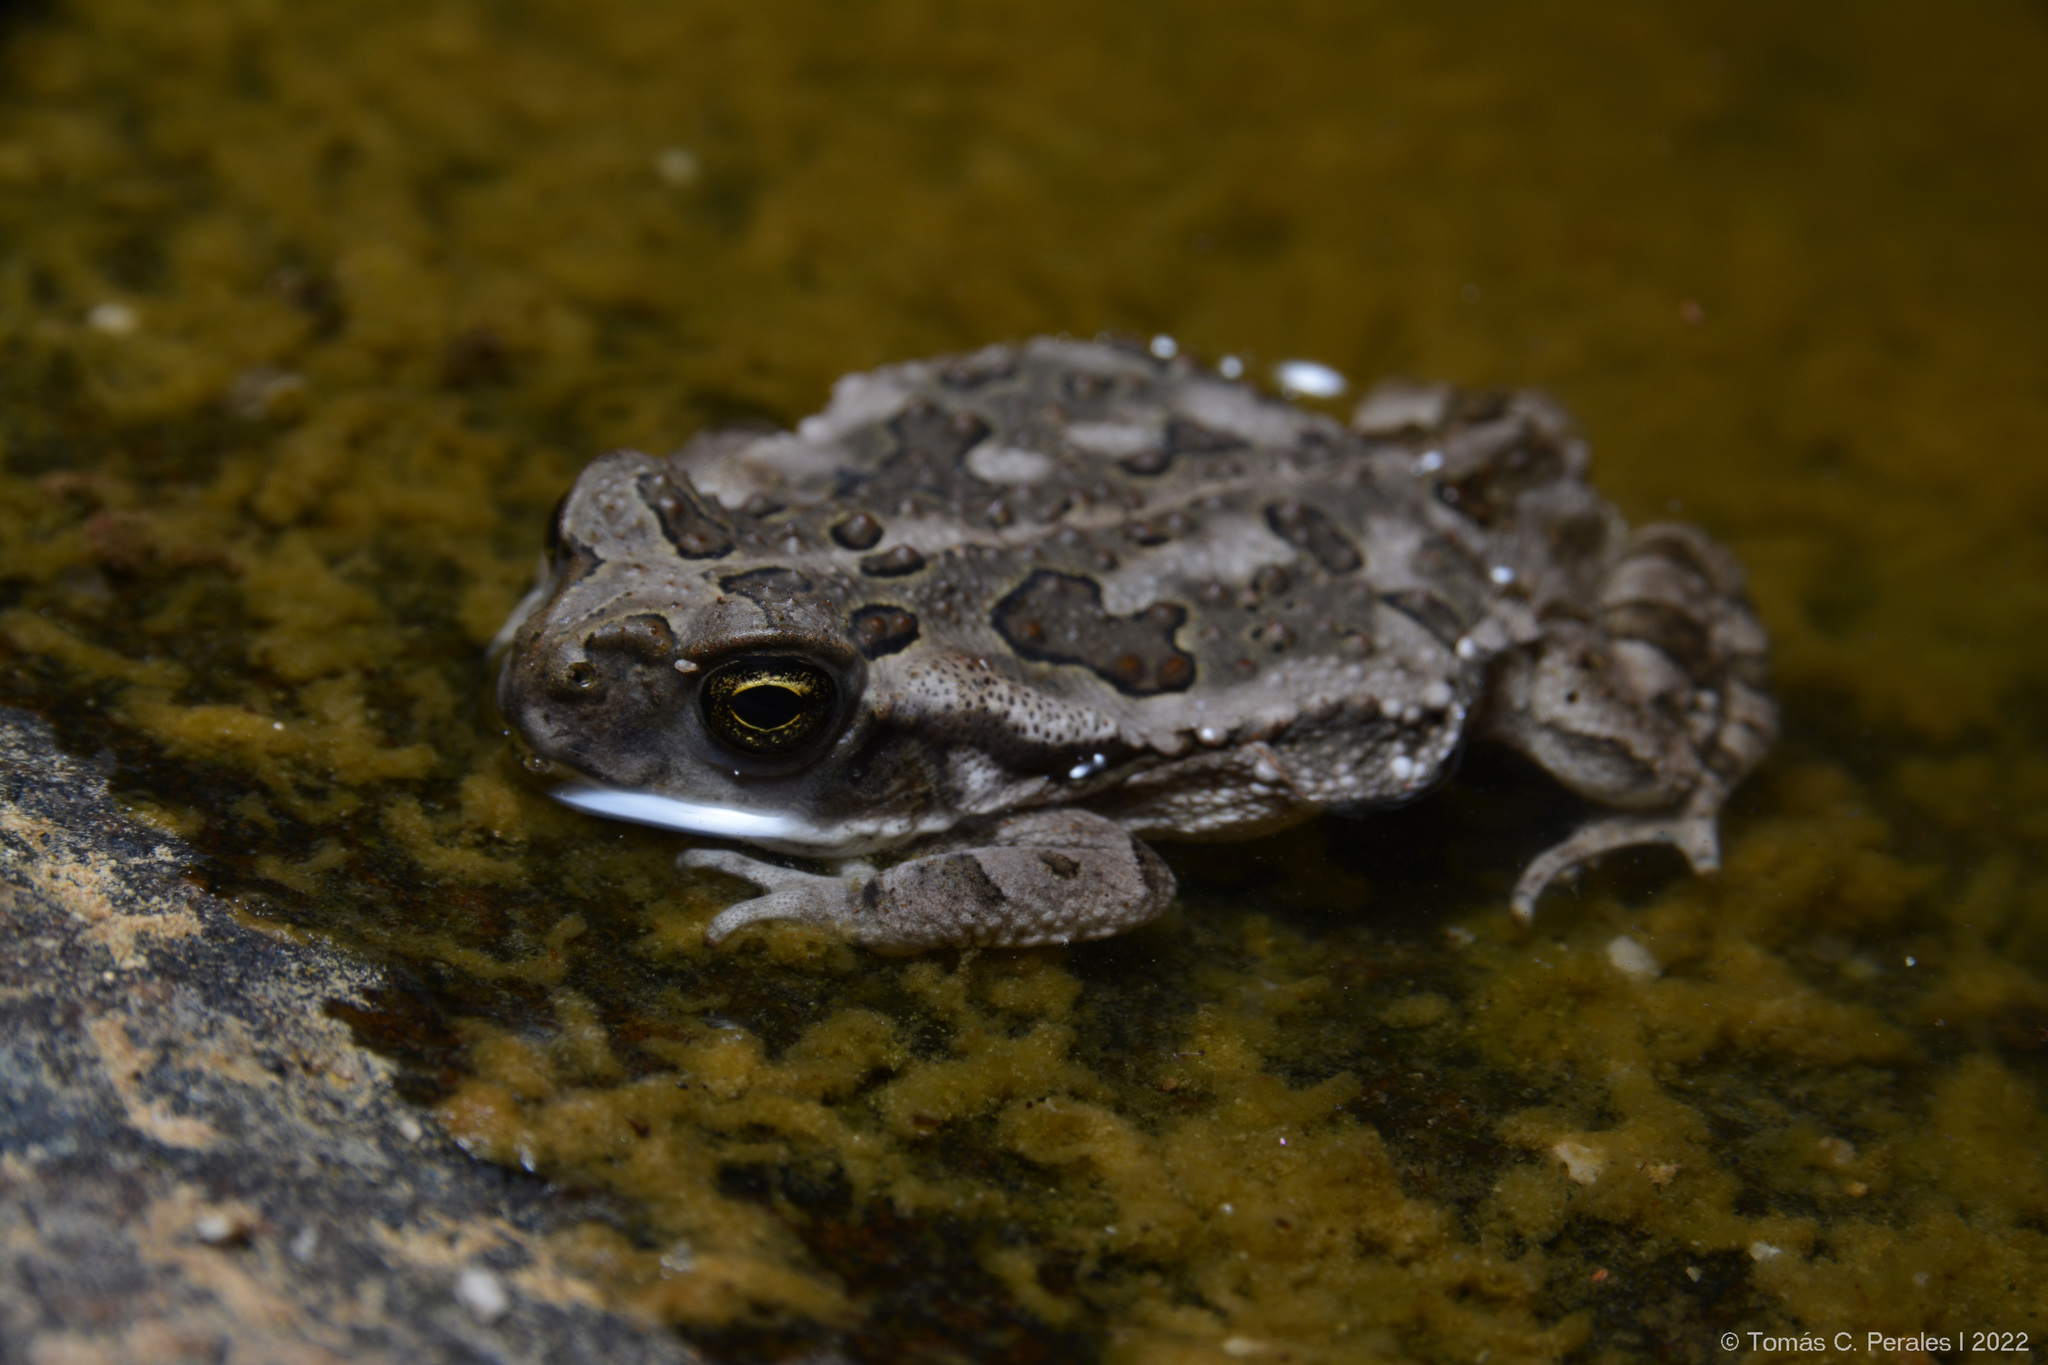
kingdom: Animalia
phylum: Chordata
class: Amphibia
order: Anura
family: Bufonidae
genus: Rhinella
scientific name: Rhinella arenarum
